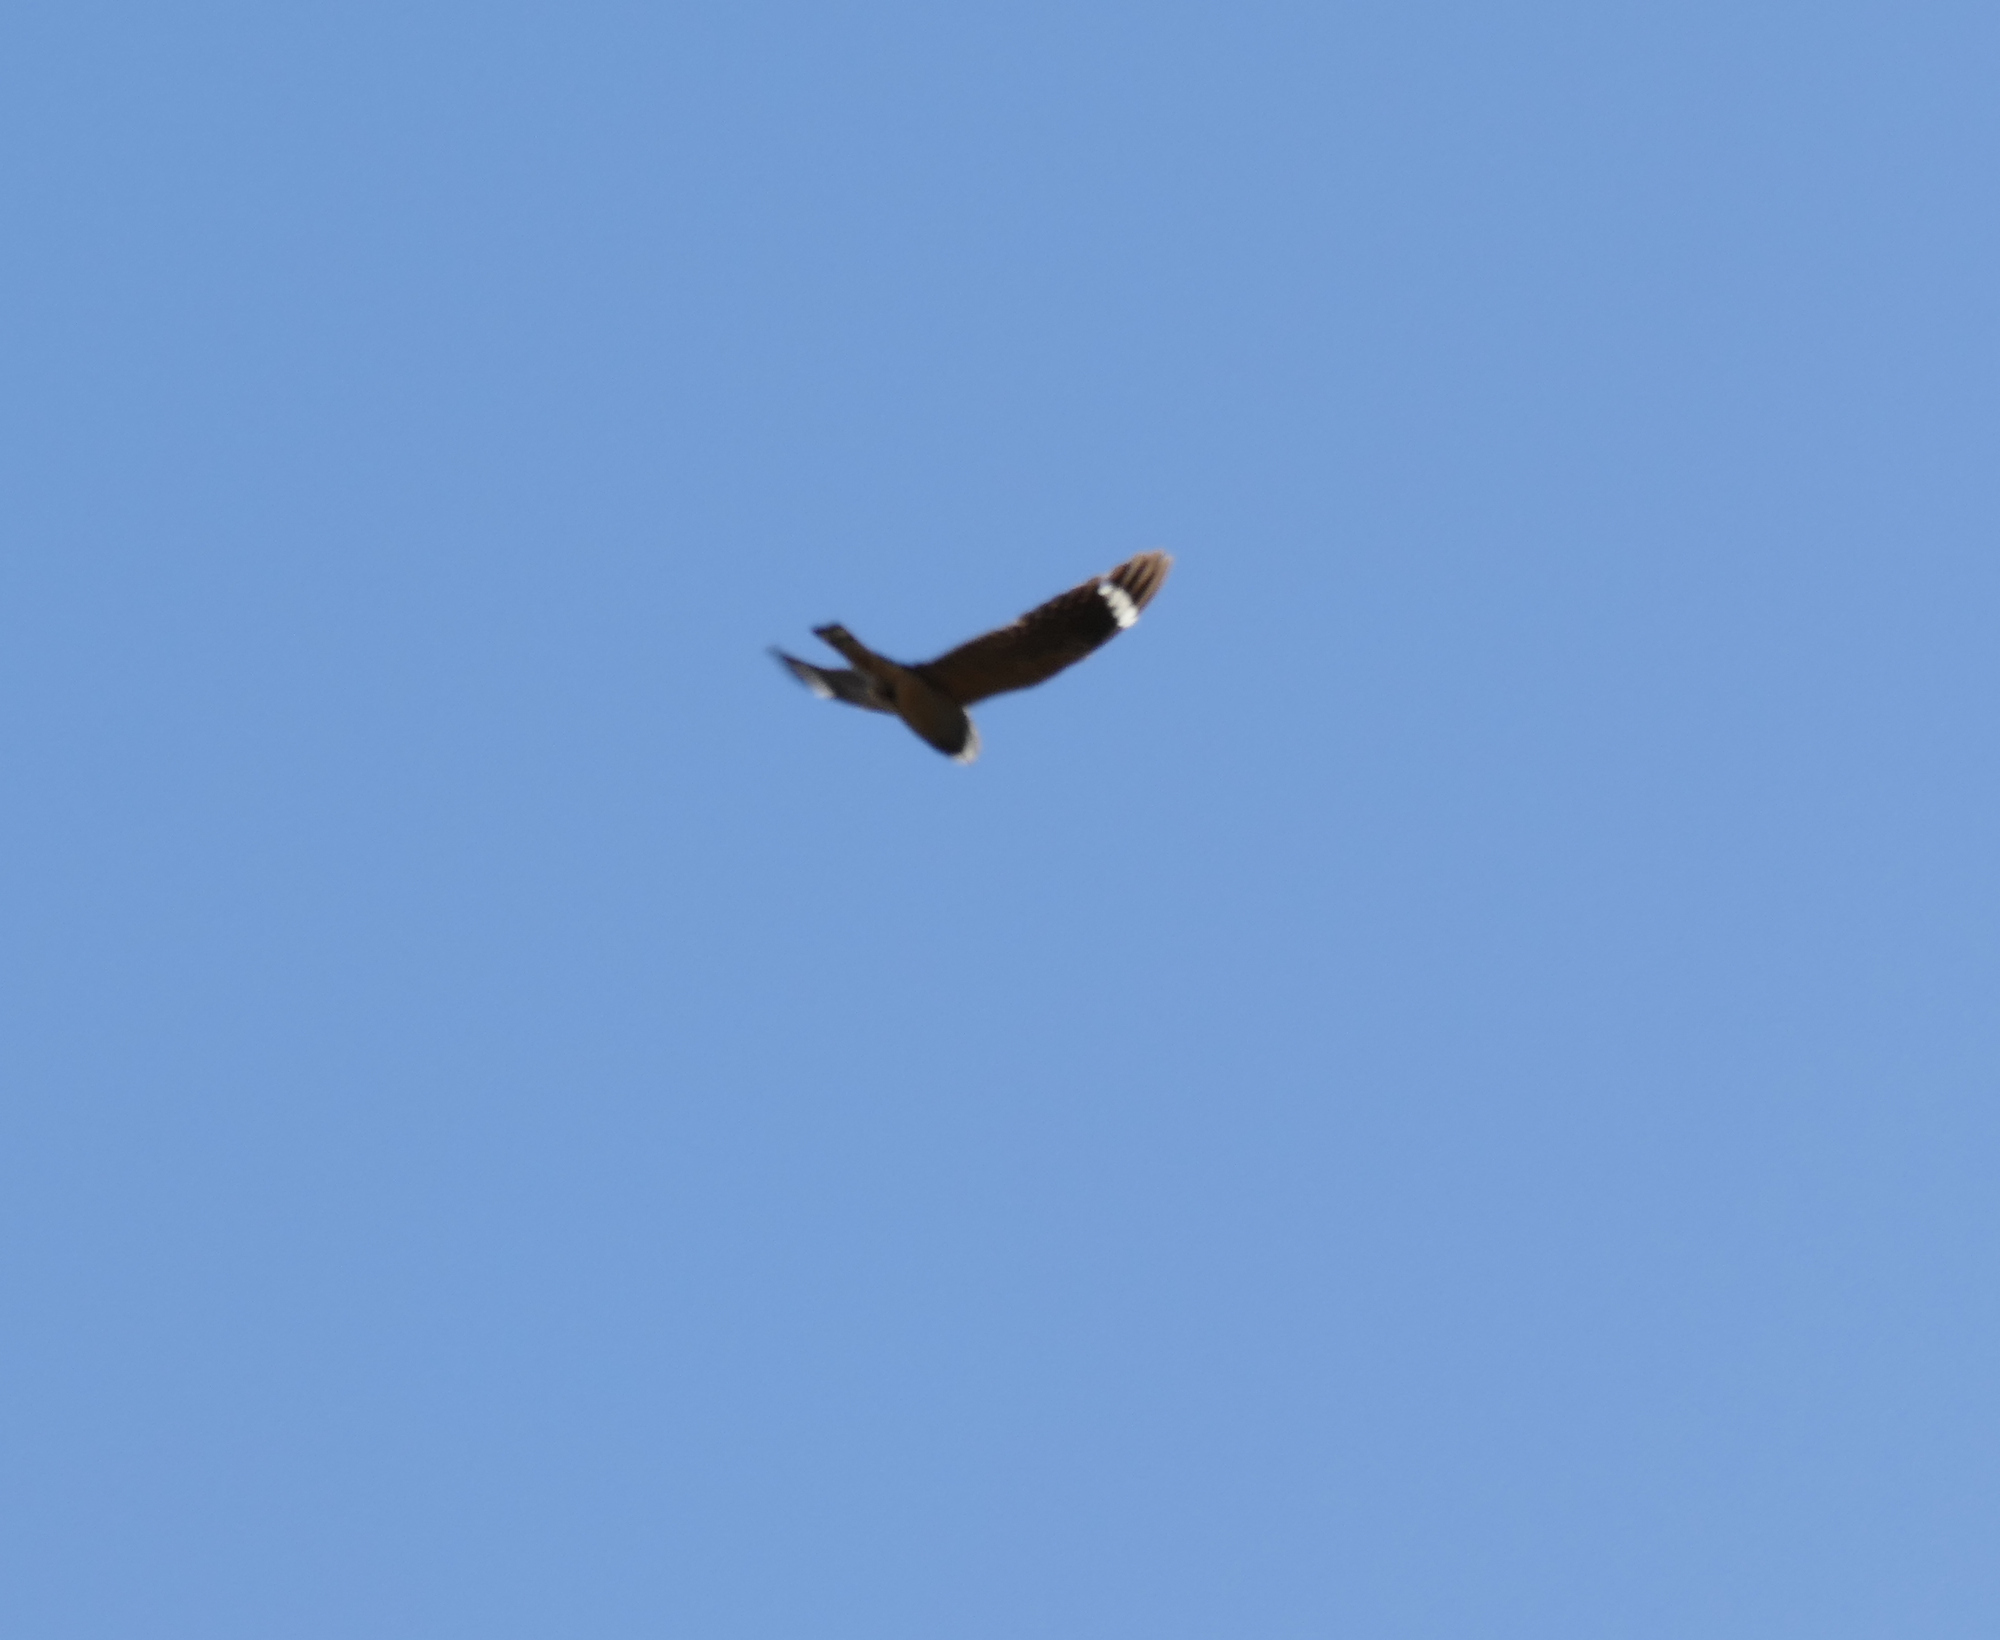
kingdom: Animalia
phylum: Chordata
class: Aves
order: Caprimulgiformes
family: Caprimulgidae
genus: Chordeiles
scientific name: Chordeiles acutipennis
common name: Lesser nighthawk
